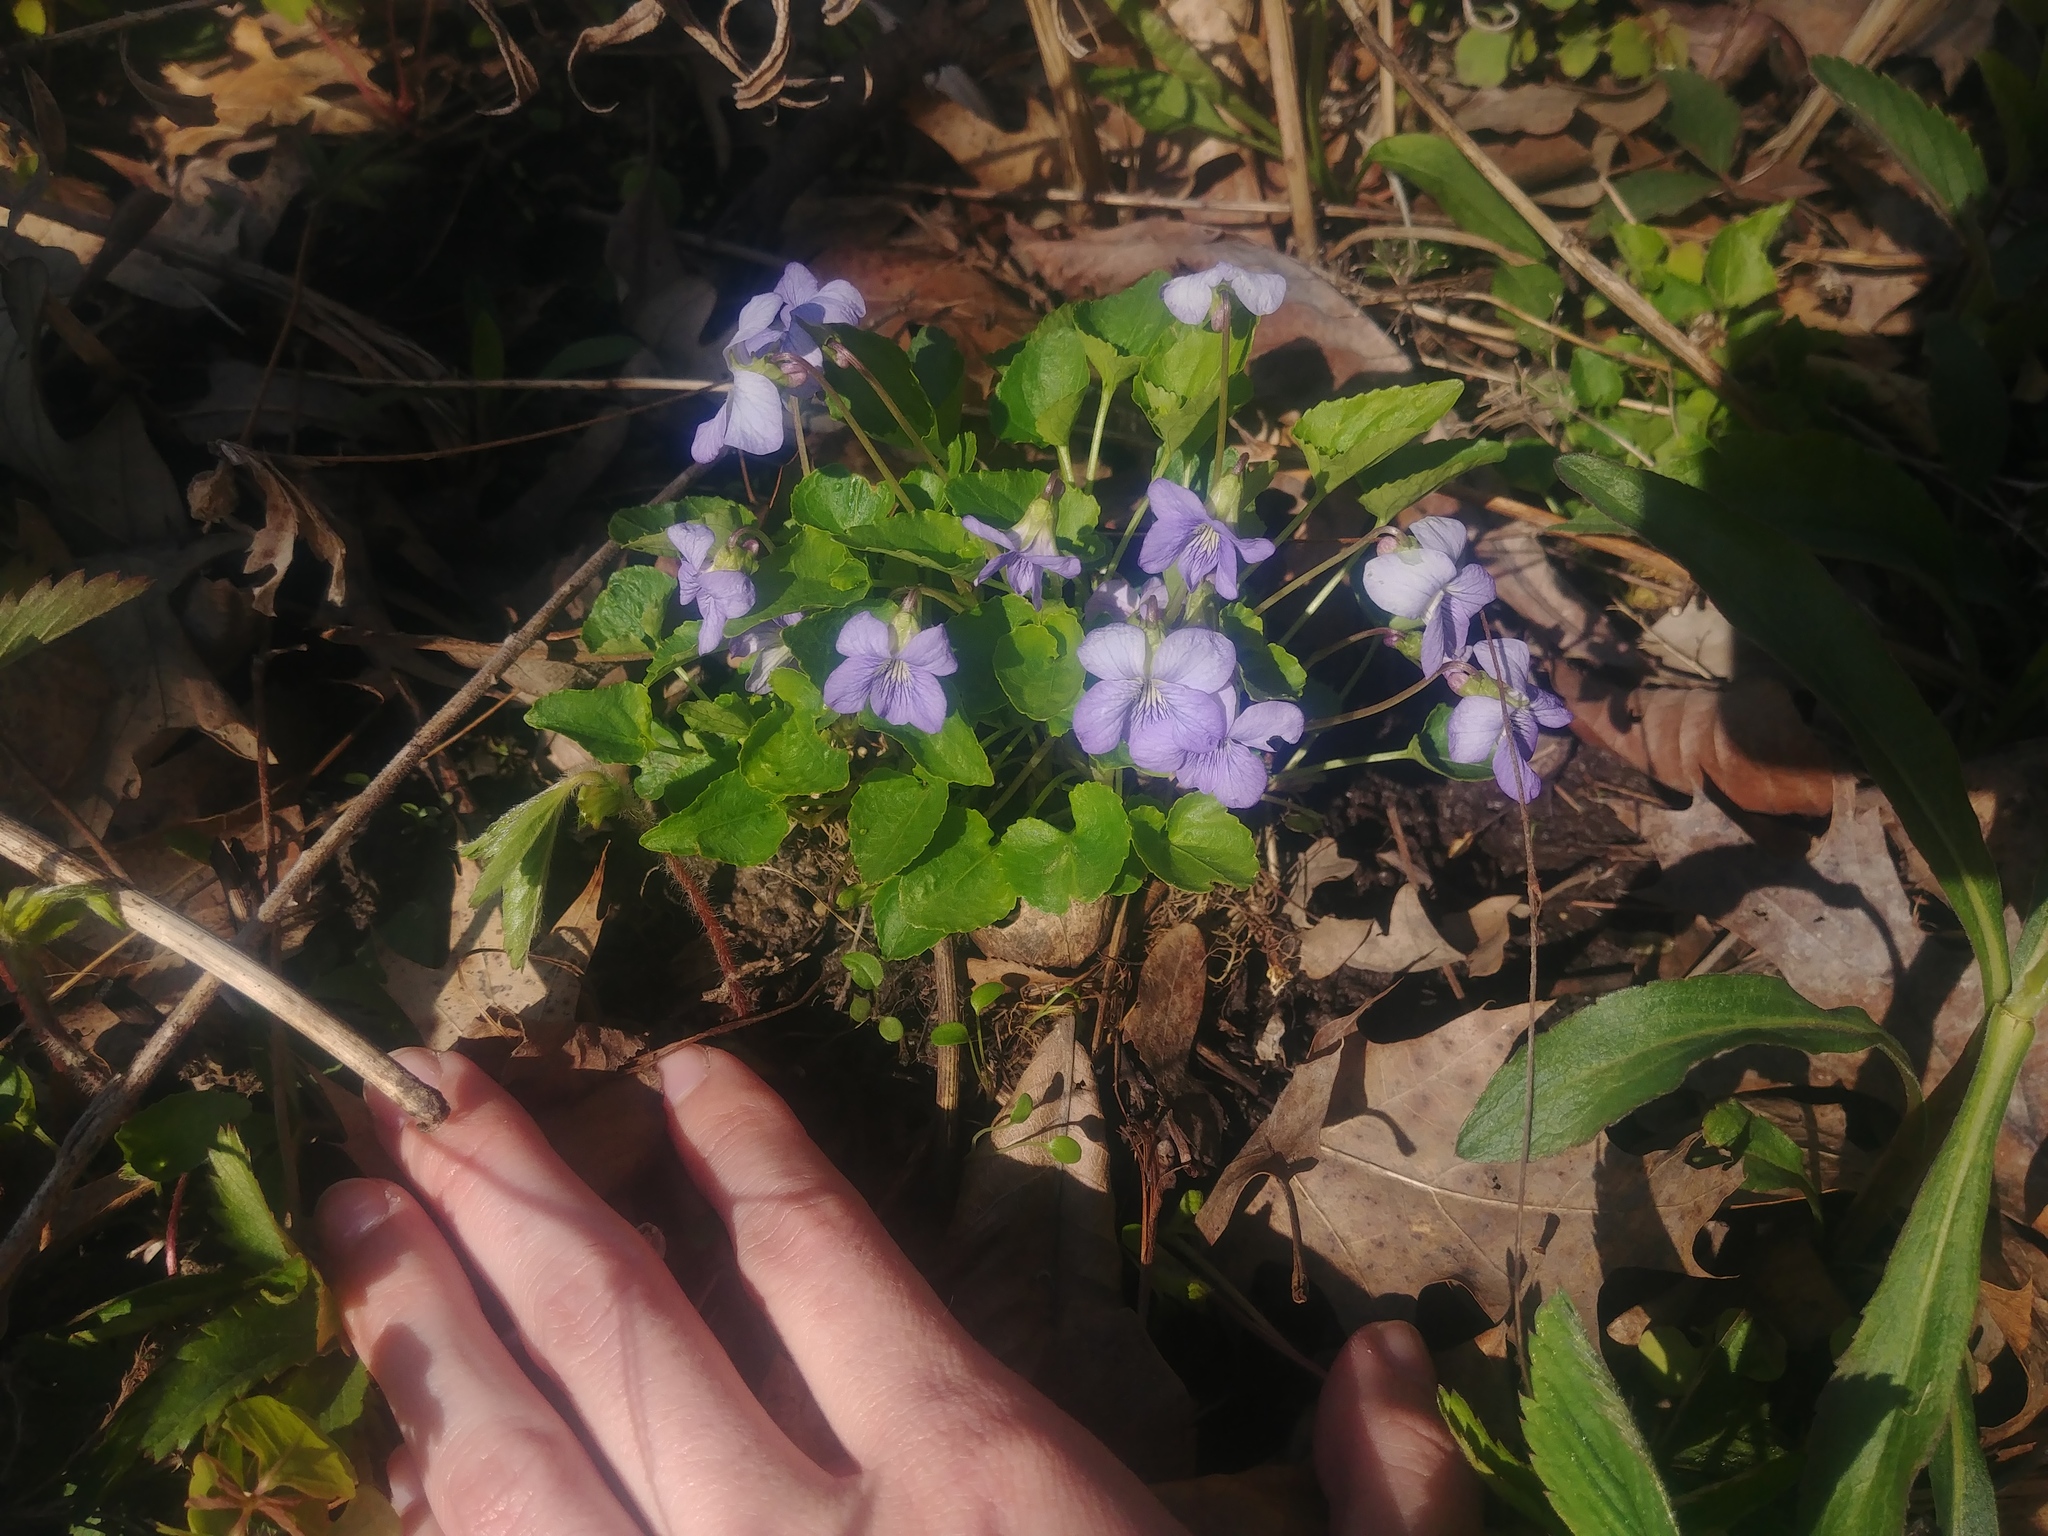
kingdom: Plantae
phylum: Tracheophyta
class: Magnoliopsida
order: Malpighiales
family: Violaceae
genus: Viola
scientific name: Viola cucullata
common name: Marsh blue violet
